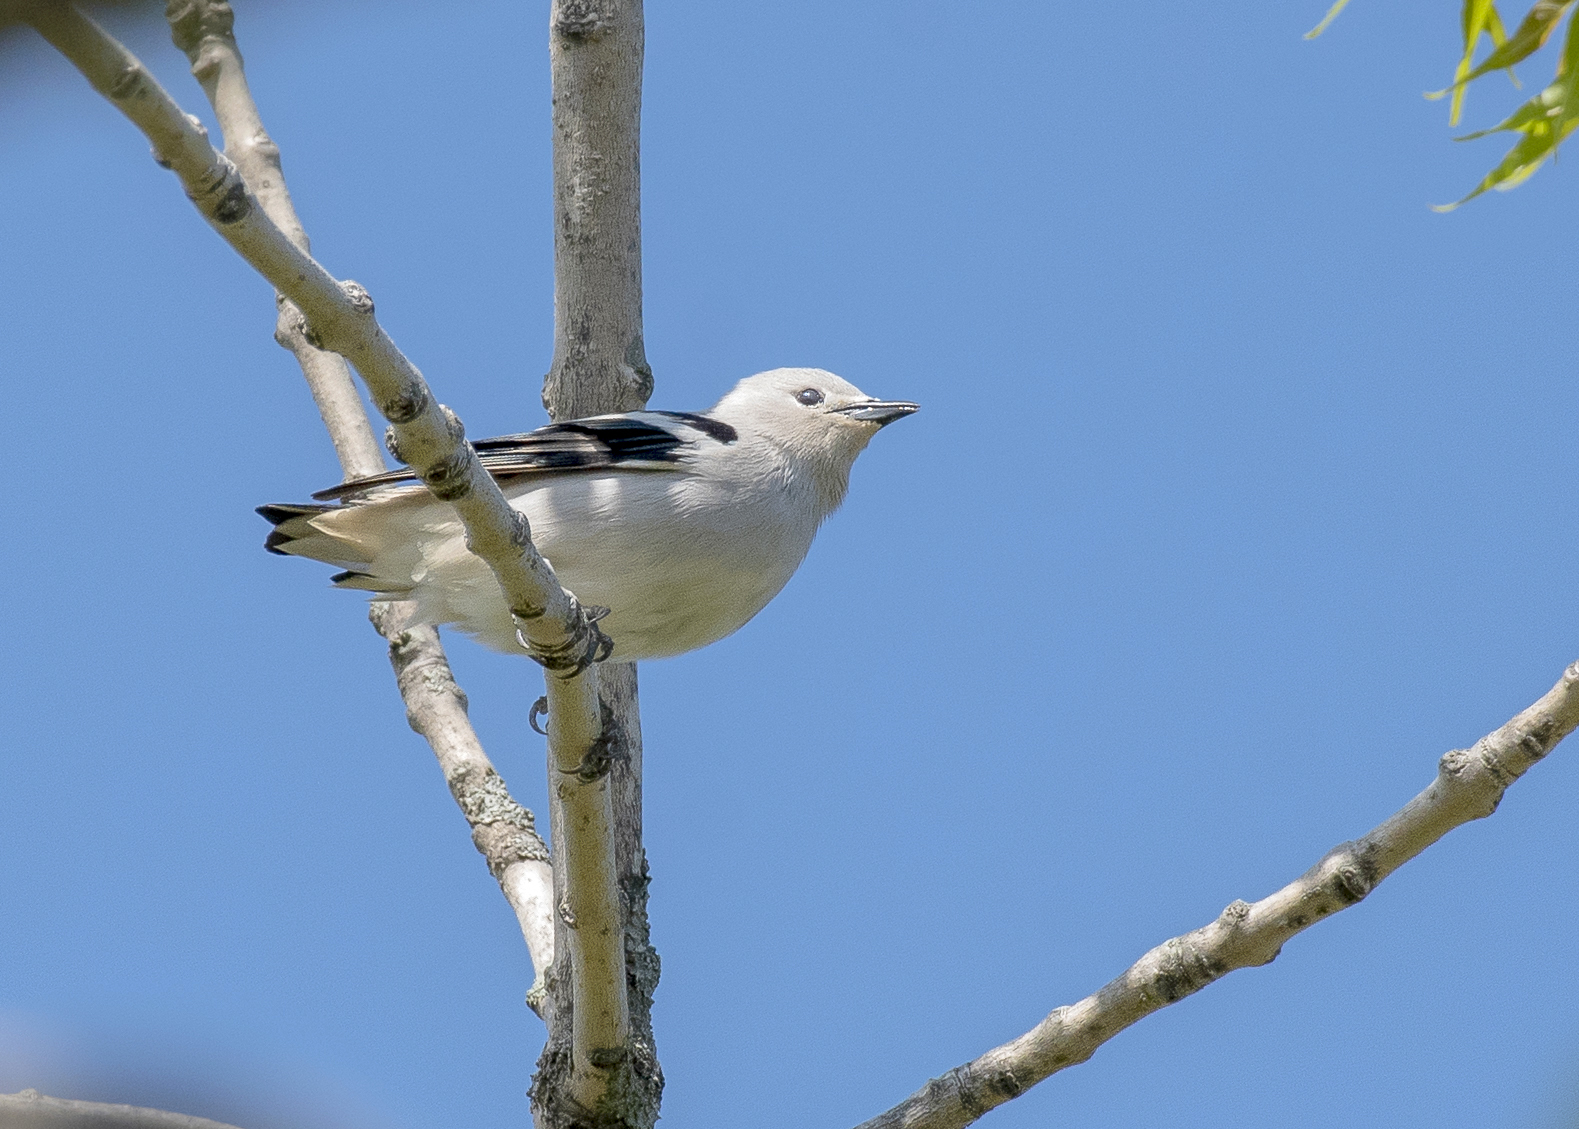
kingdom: Animalia
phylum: Chordata
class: Aves
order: Passeriformes
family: Sturnidae
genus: Agropsar
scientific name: Agropsar sturninus
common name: Daurian starling
